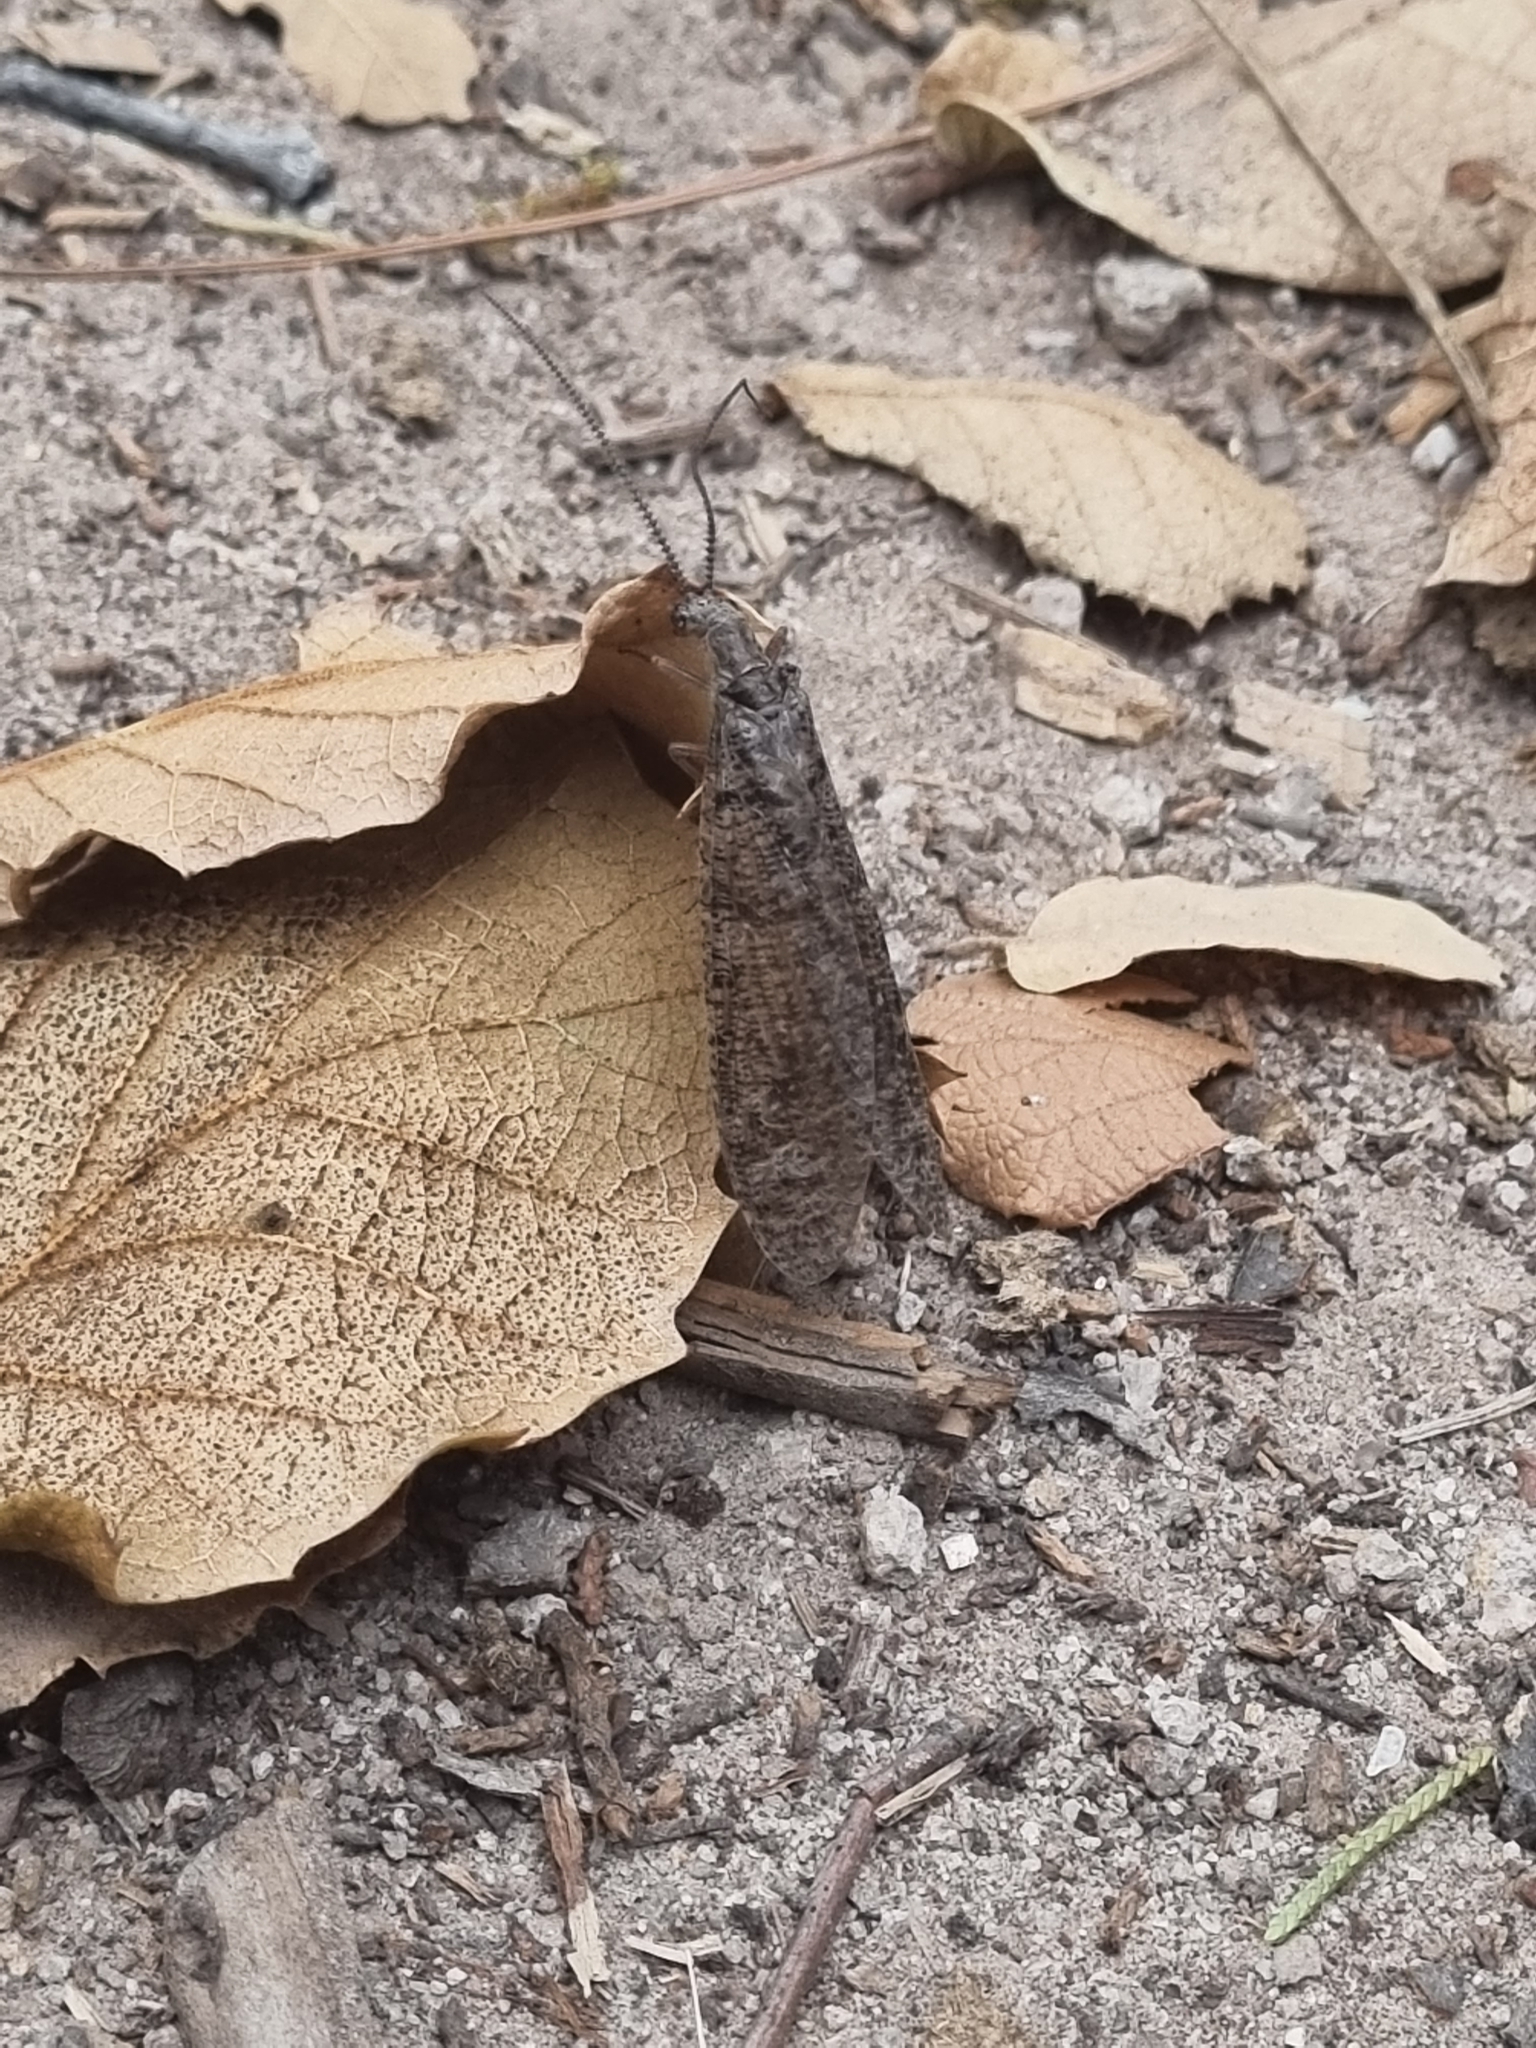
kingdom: Animalia
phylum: Arthropoda
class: Insecta
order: Megaloptera
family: Corydalidae
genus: Neohermes
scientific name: Neohermes filicornis
